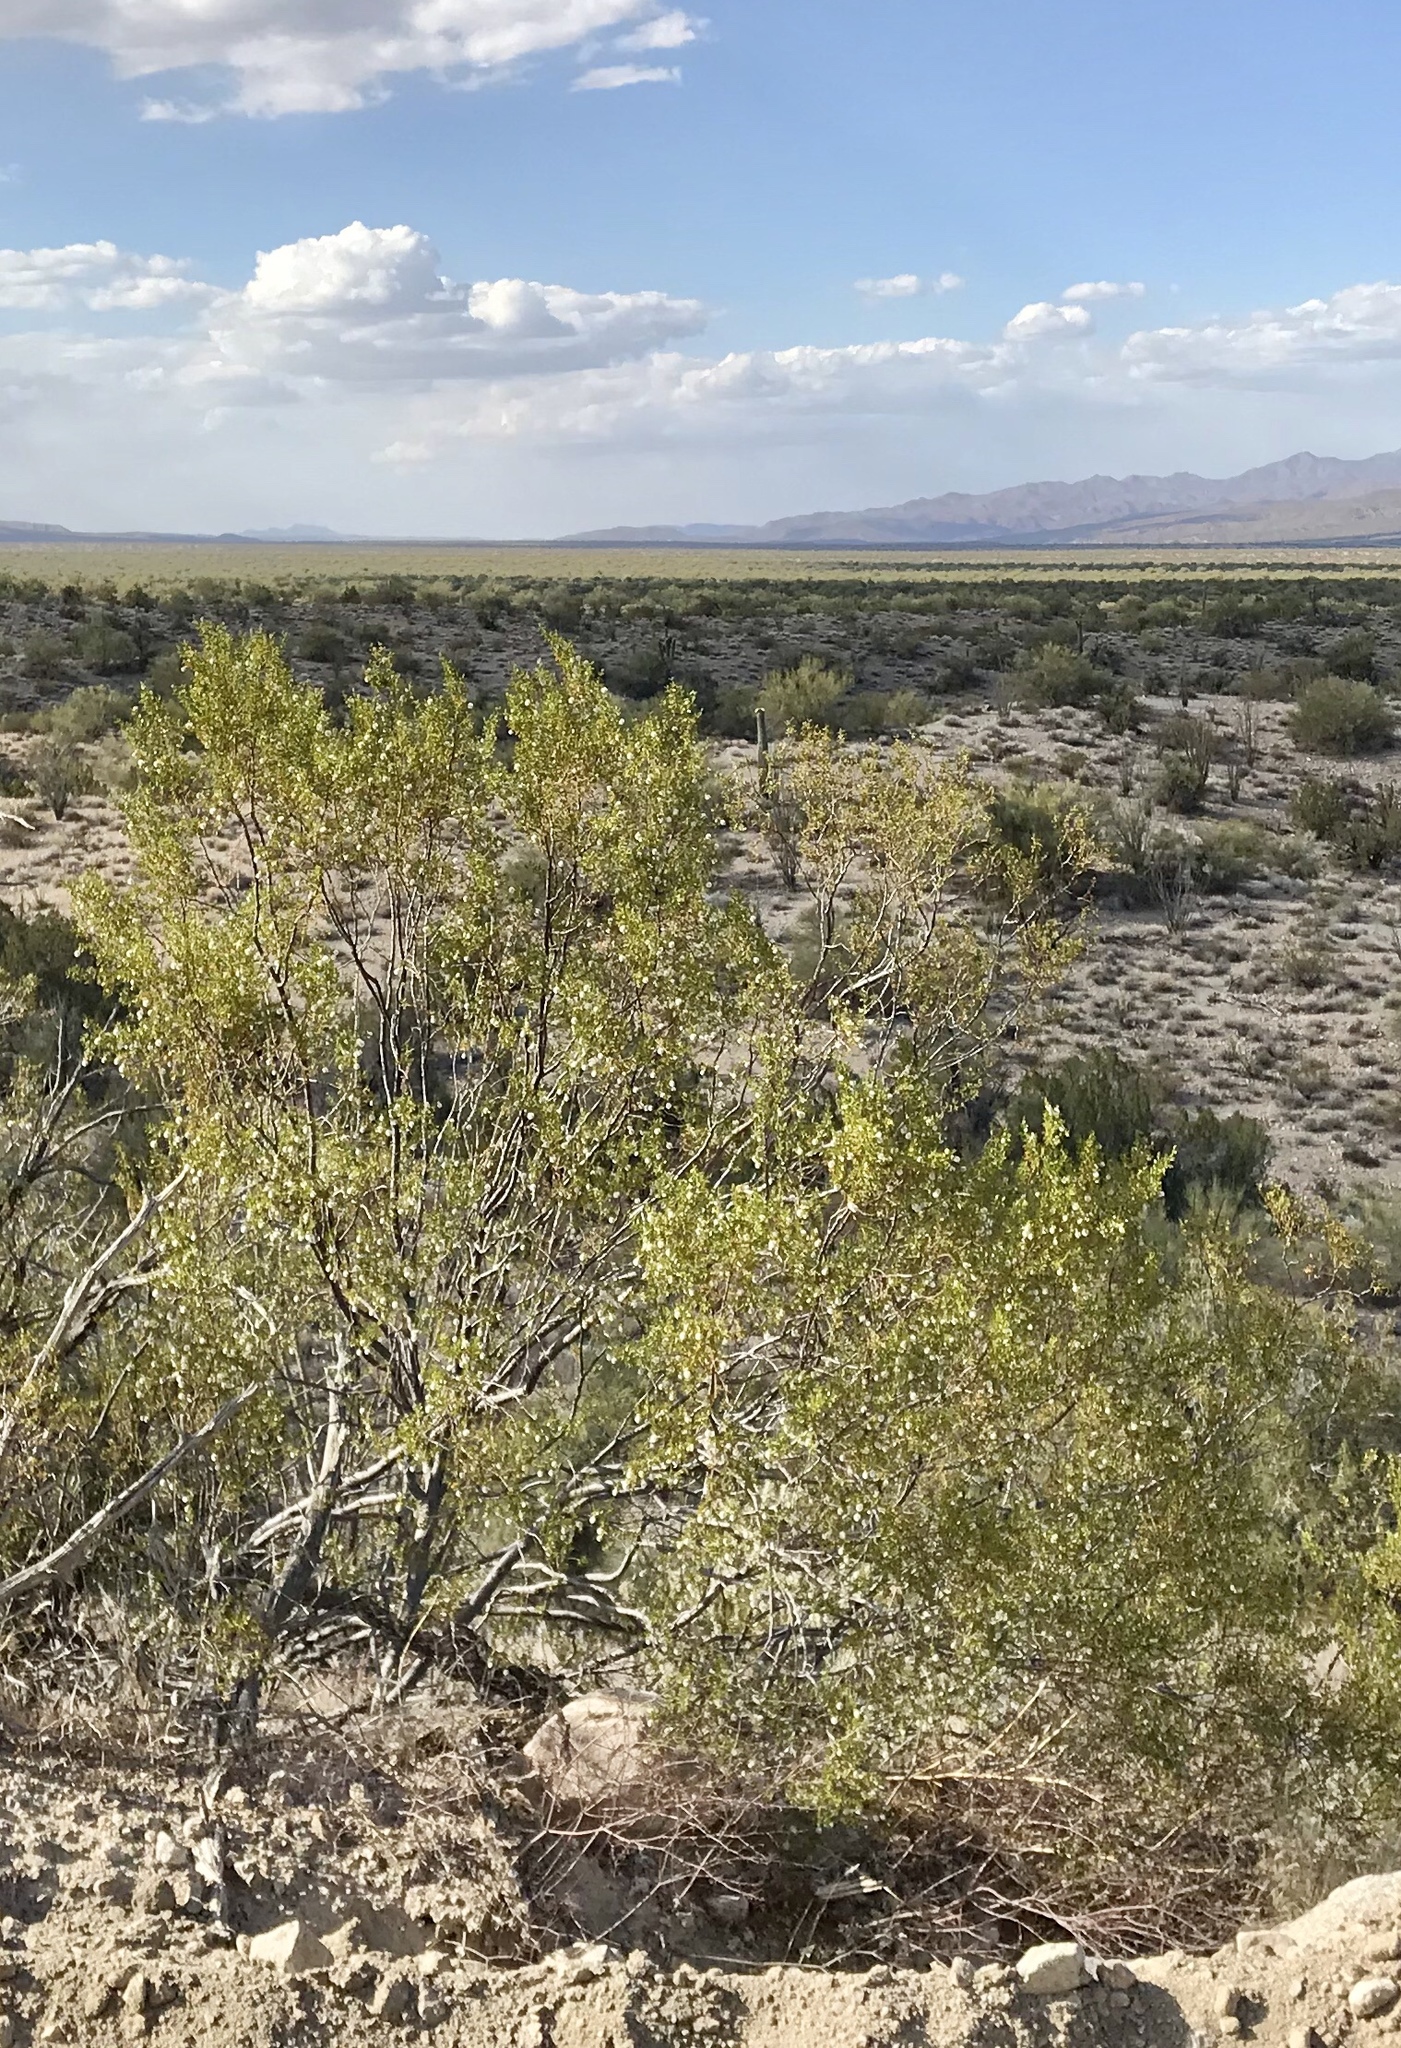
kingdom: Plantae
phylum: Tracheophyta
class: Magnoliopsida
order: Zygophyllales
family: Zygophyllaceae
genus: Larrea
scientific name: Larrea tridentata
